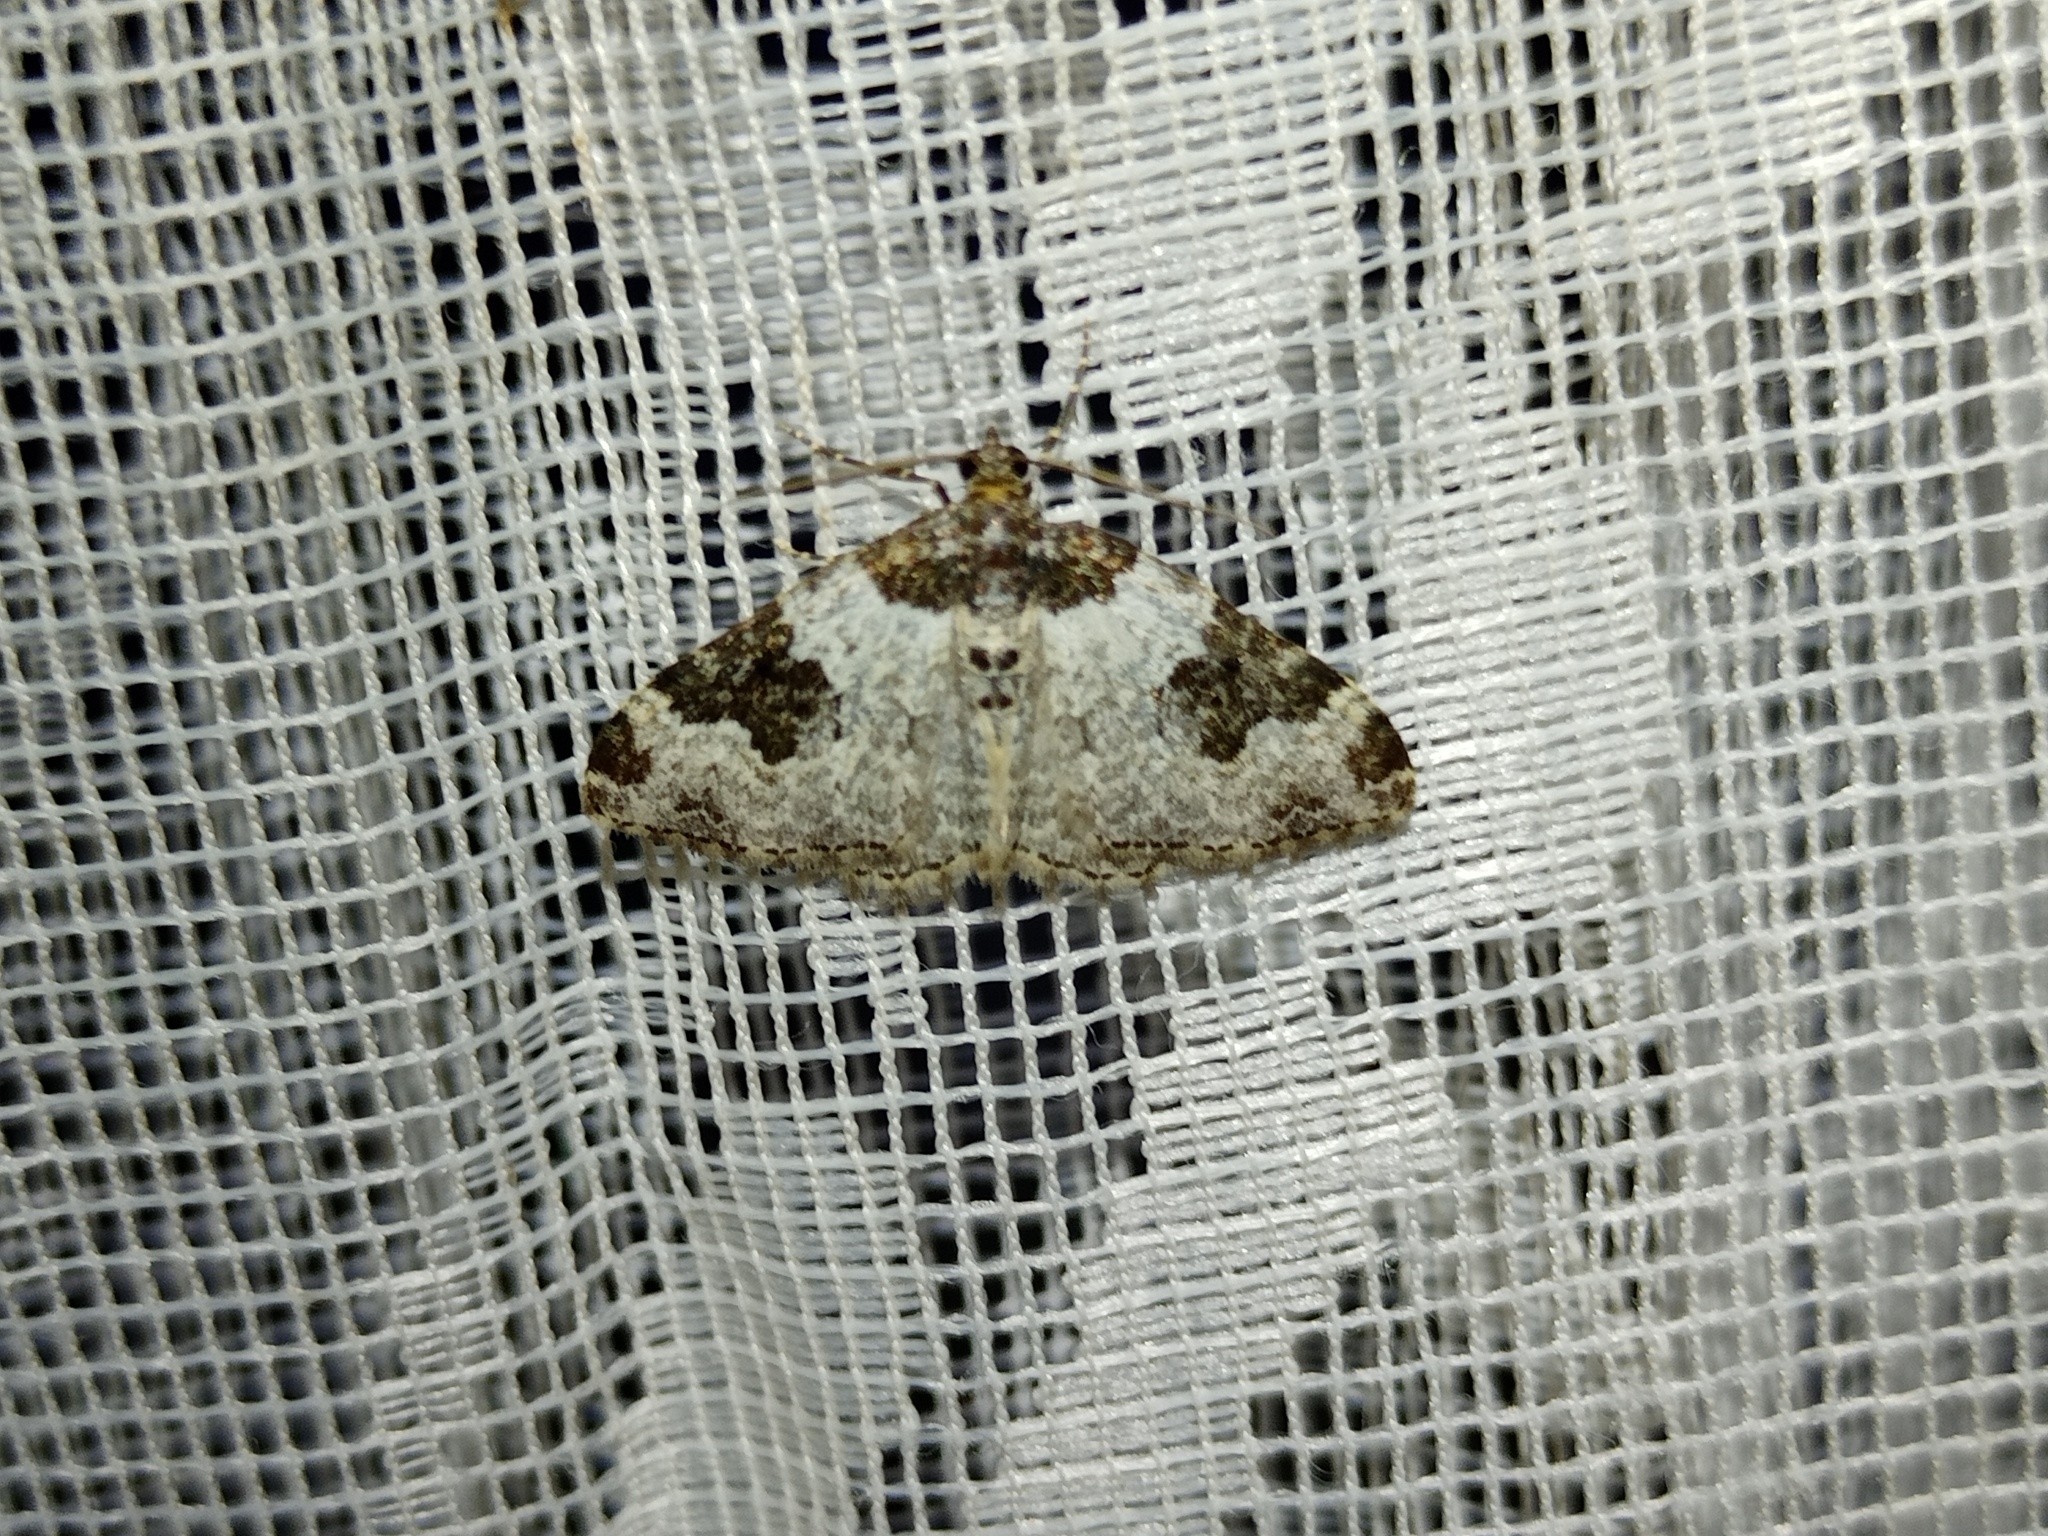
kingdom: Animalia
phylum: Arthropoda
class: Insecta
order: Lepidoptera
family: Geometridae
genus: Xanthorhoe
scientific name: Xanthorhoe fluctuata
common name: Garden carpet
